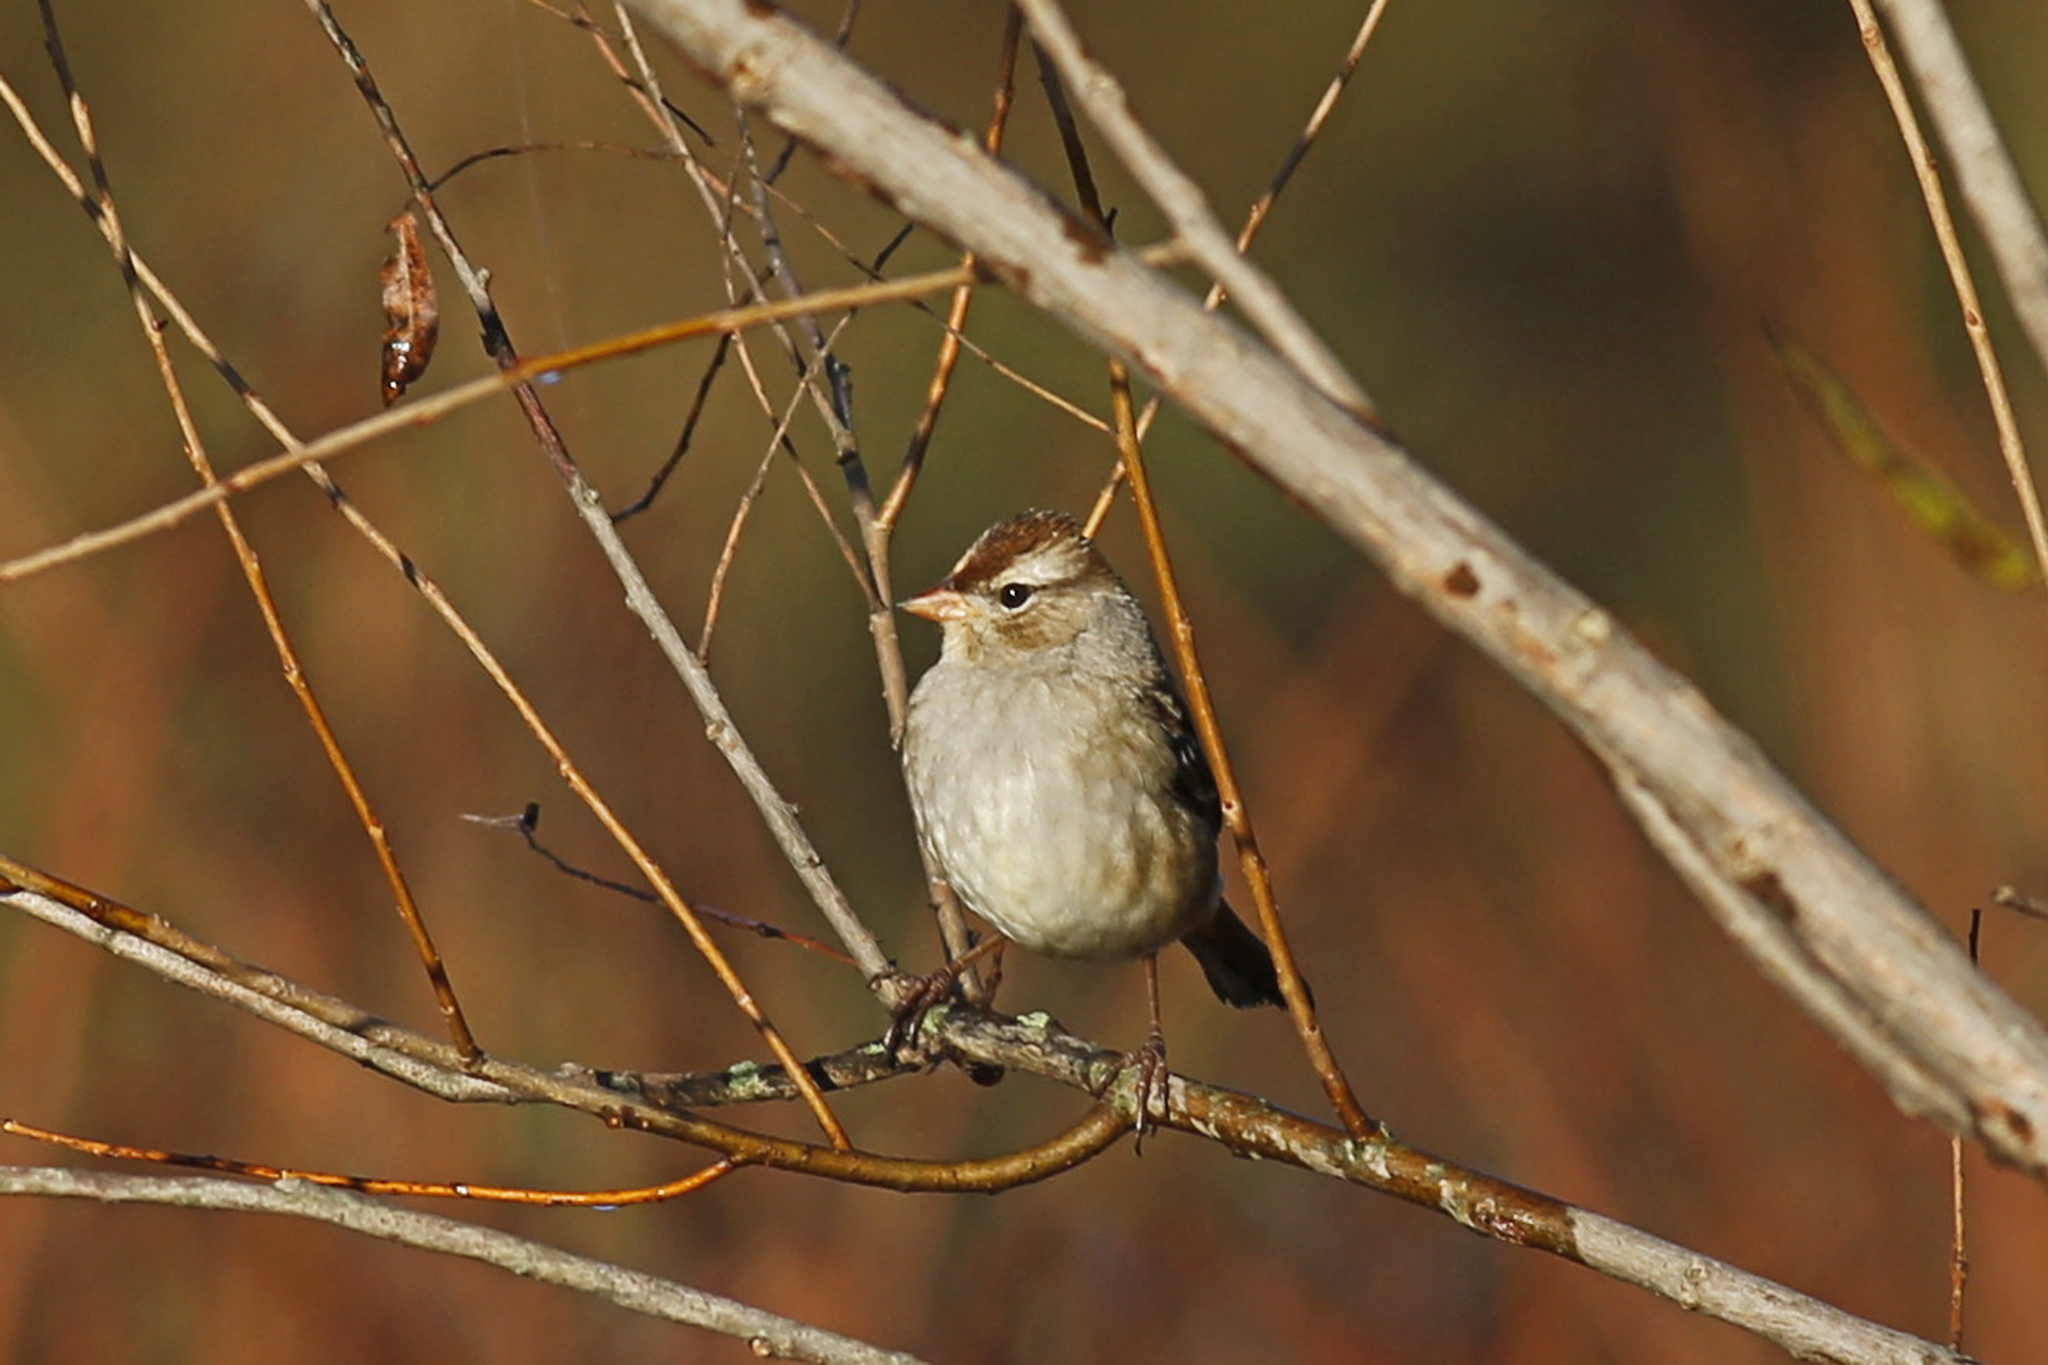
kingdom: Animalia
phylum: Chordata
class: Aves
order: Passeriformes
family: Passerellidae
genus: Zonotrichia
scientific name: Zonotrichia leucophrys
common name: White-crowned sparrow
